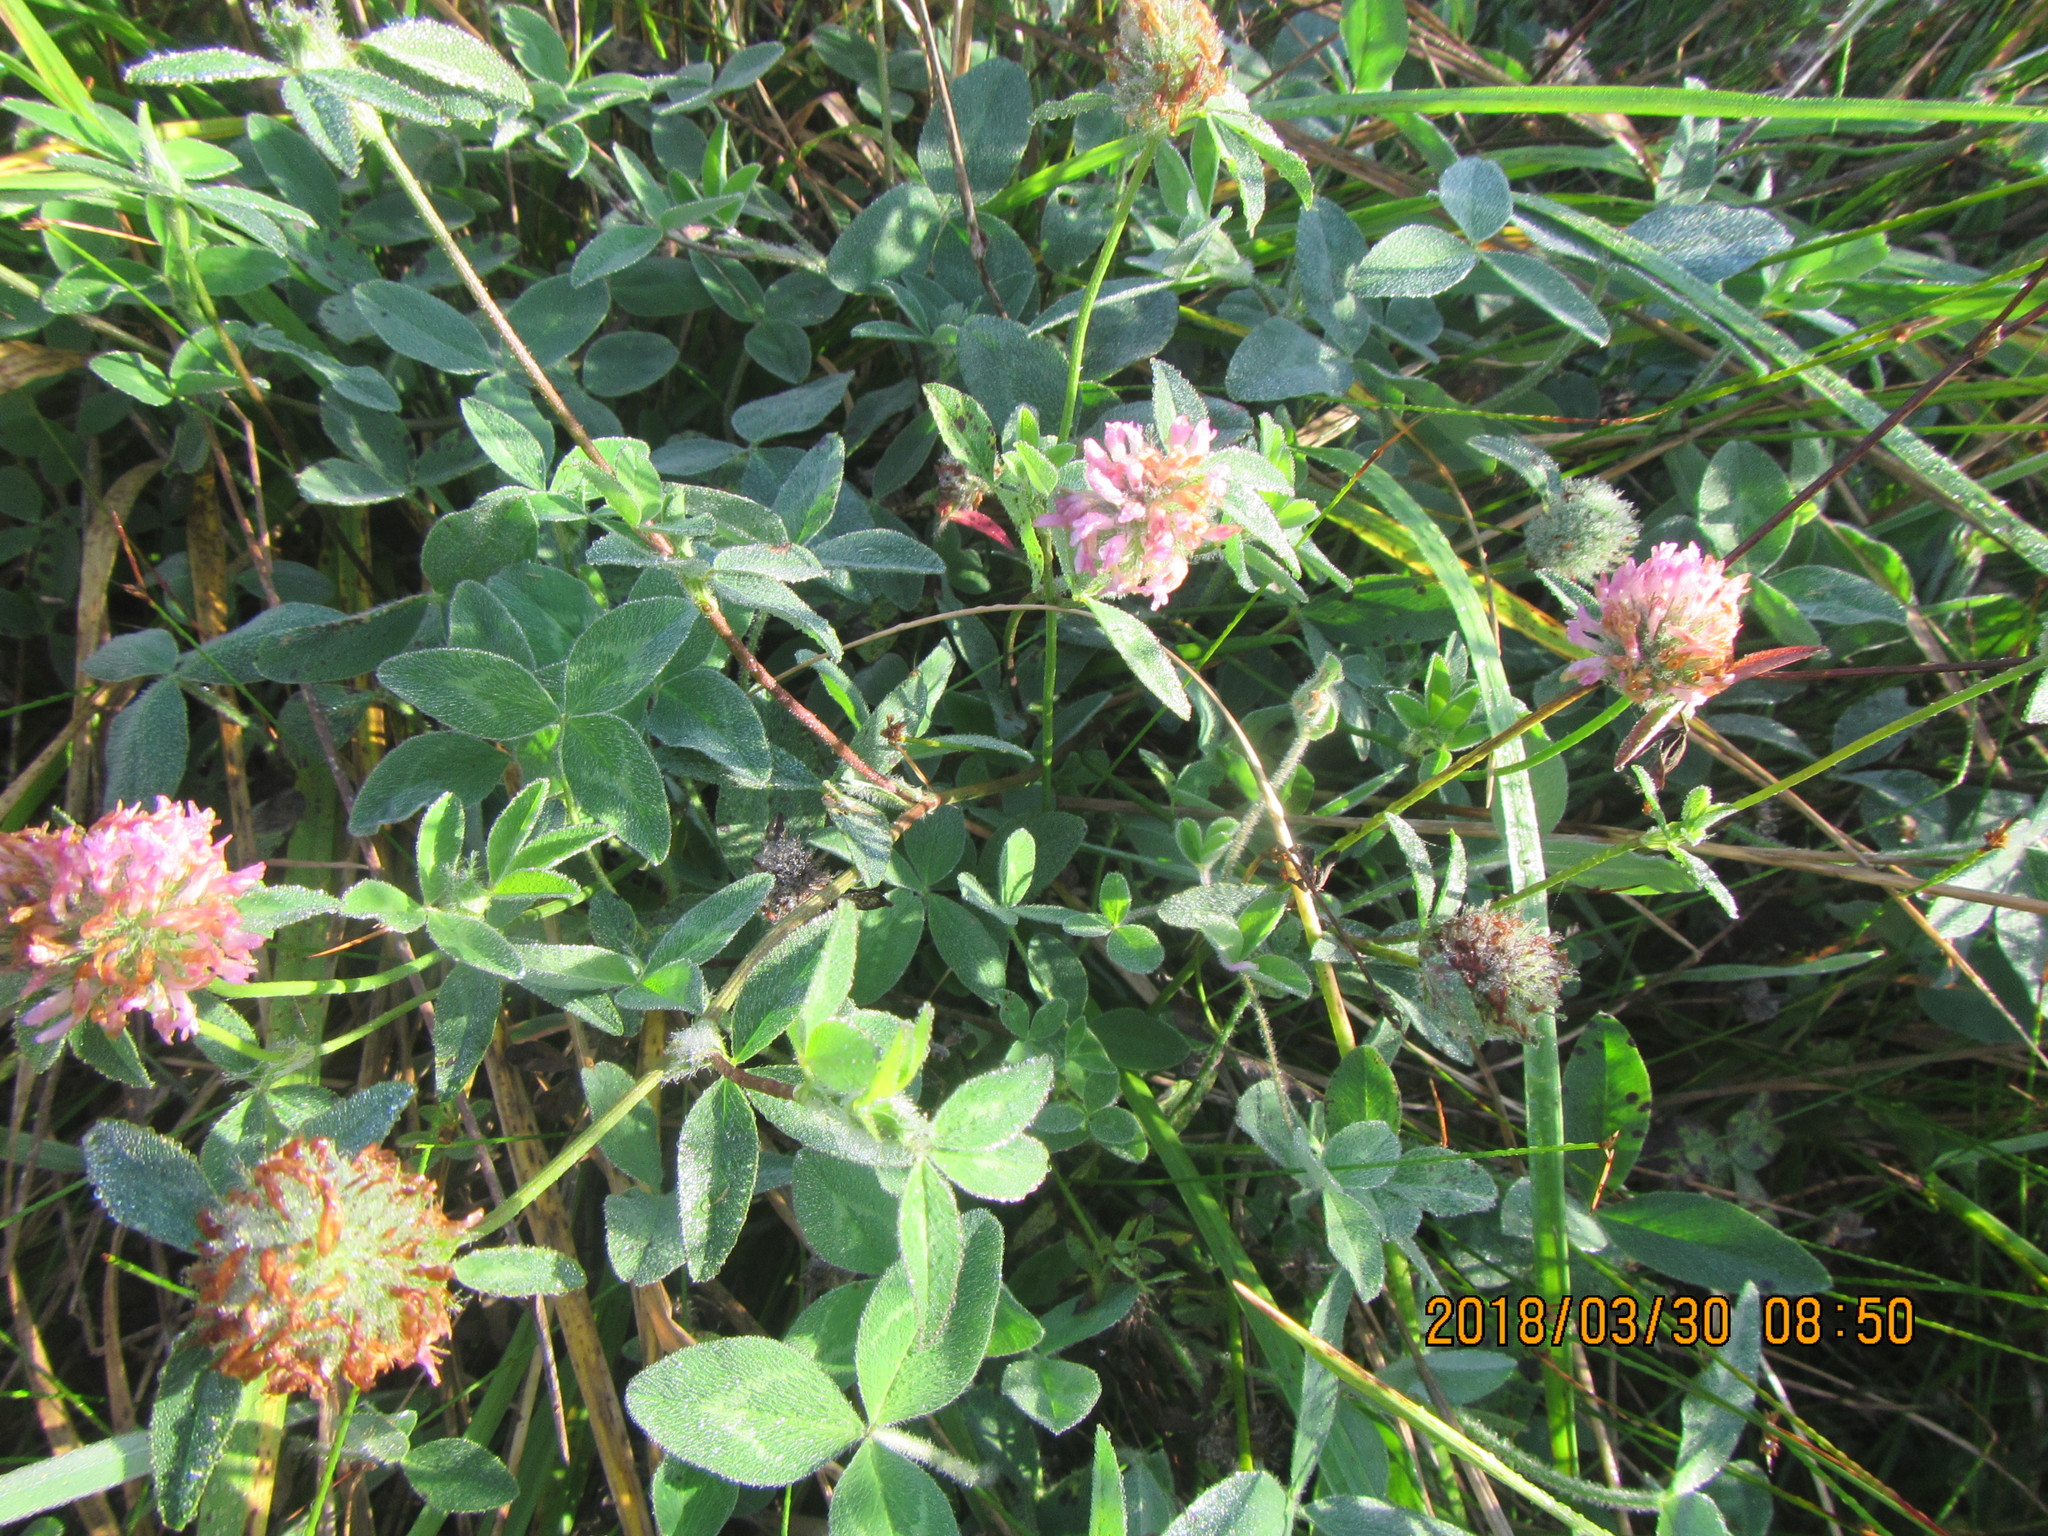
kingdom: Plantae
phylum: Tracheophyta
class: Magnoliopsida
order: Fabales
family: Fabaceae
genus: Trifolium
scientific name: Trifolium pratense
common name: Red clover
